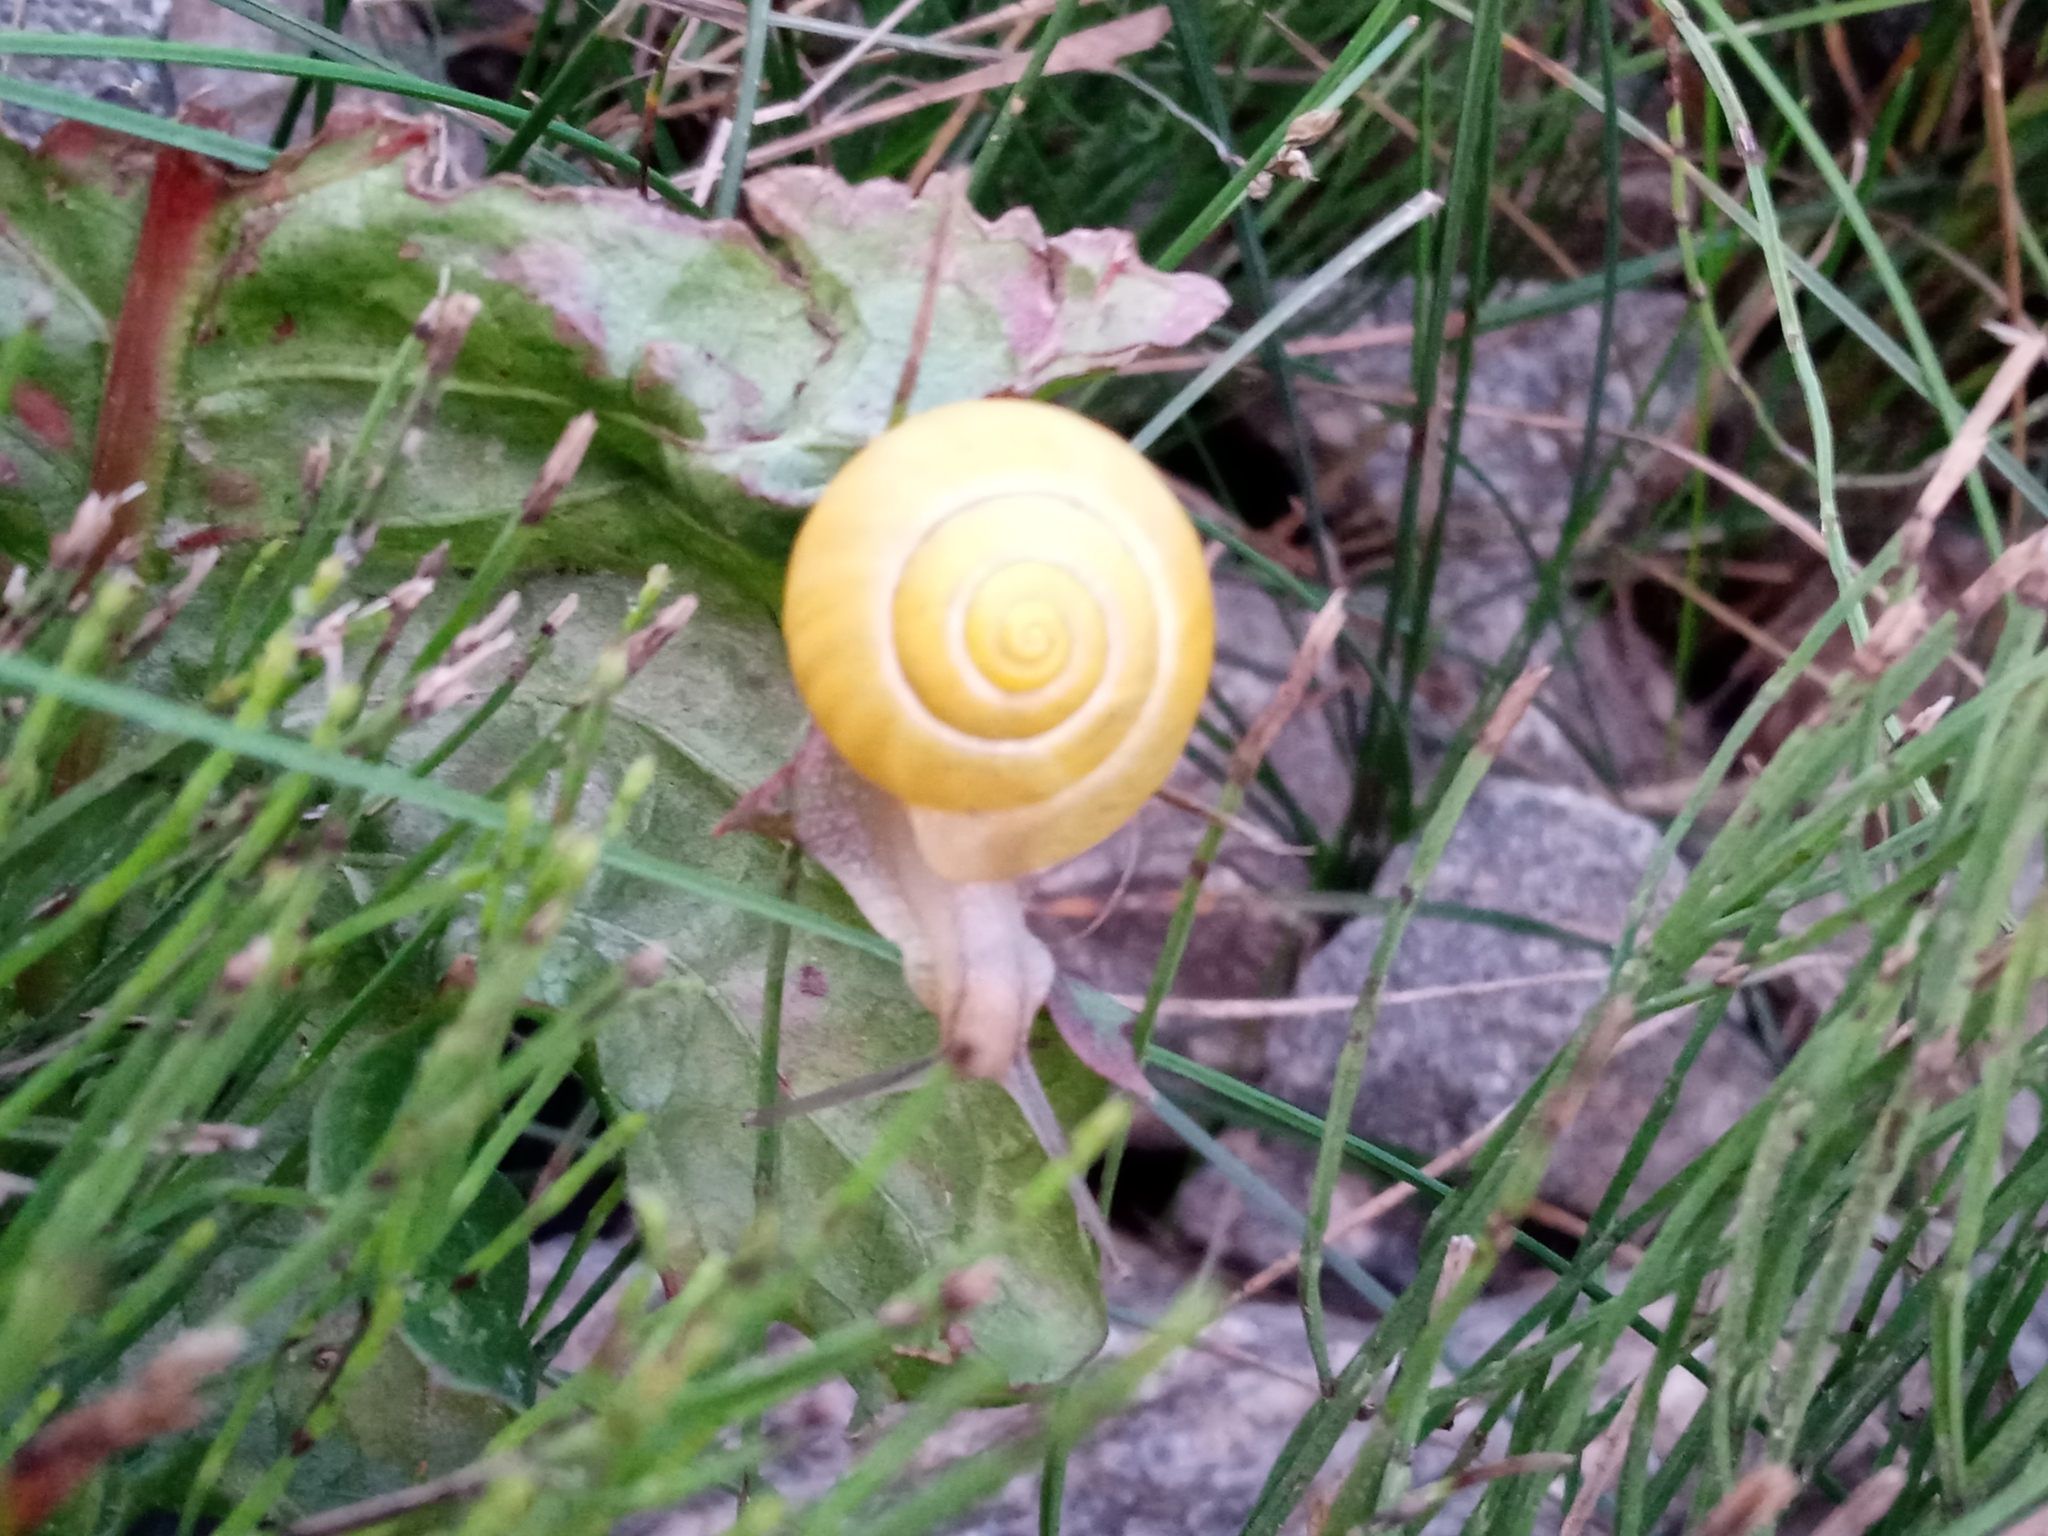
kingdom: Animalia
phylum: Mollusca
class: Gastropoda
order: Stylommatophora
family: Helicidae
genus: Cepaea
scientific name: Cepaea
